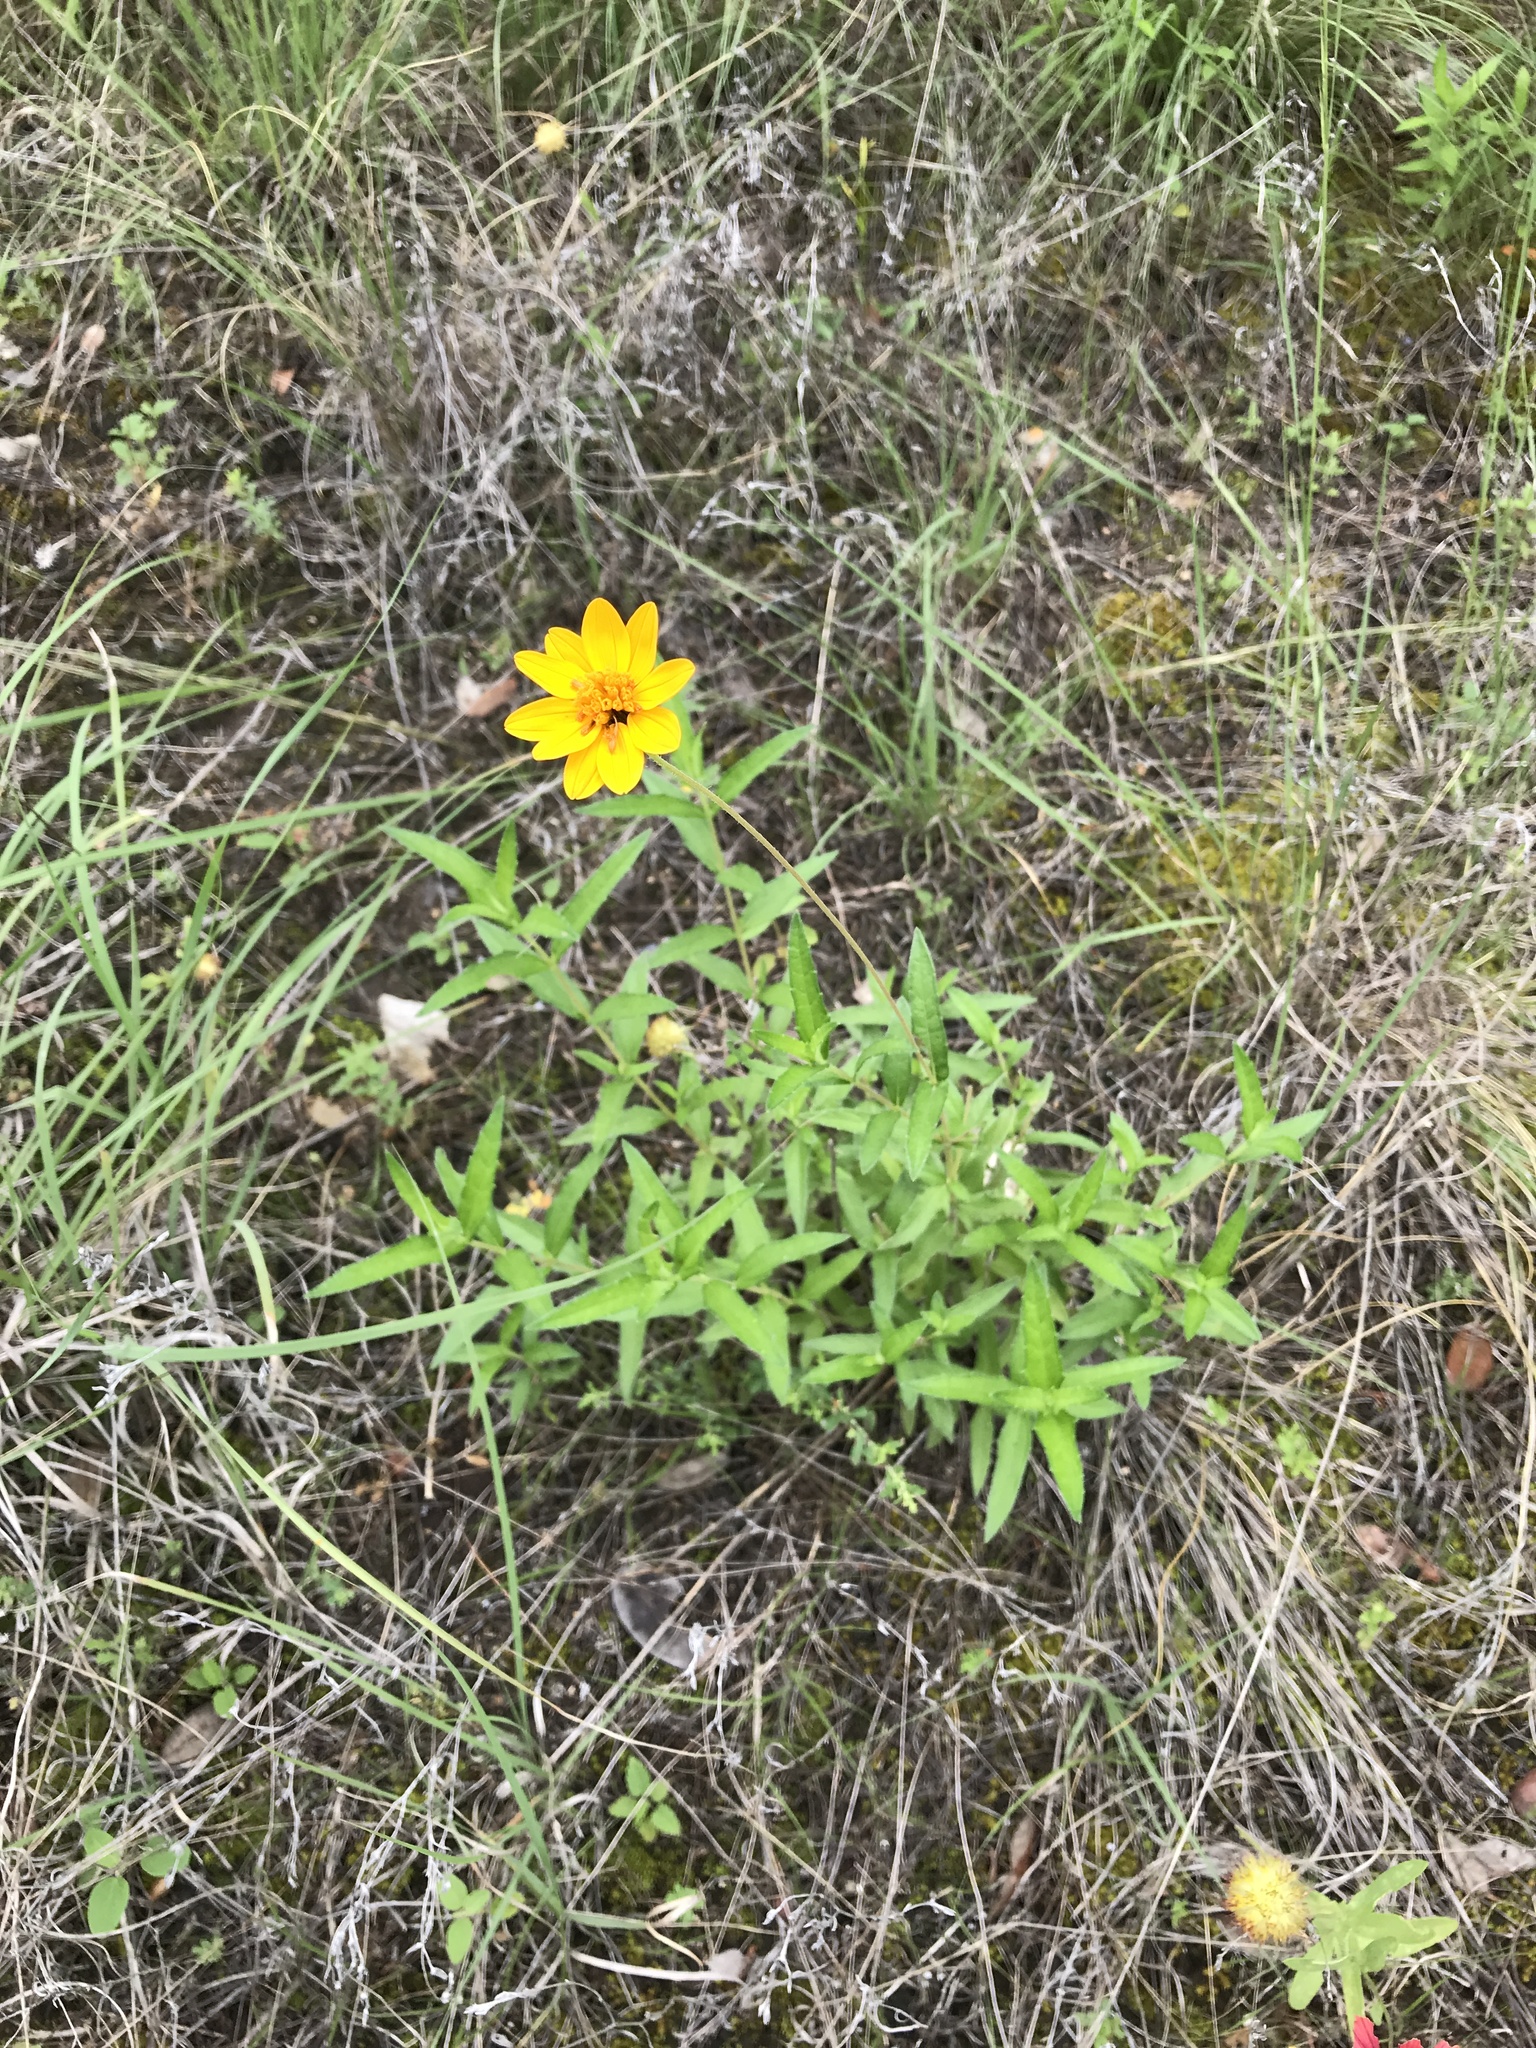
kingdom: Plantae
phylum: Tracheophyta
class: Magnoliopsida
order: Asterales
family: Asteraceae
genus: Wedelia
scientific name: Wedelia acapulcensis
